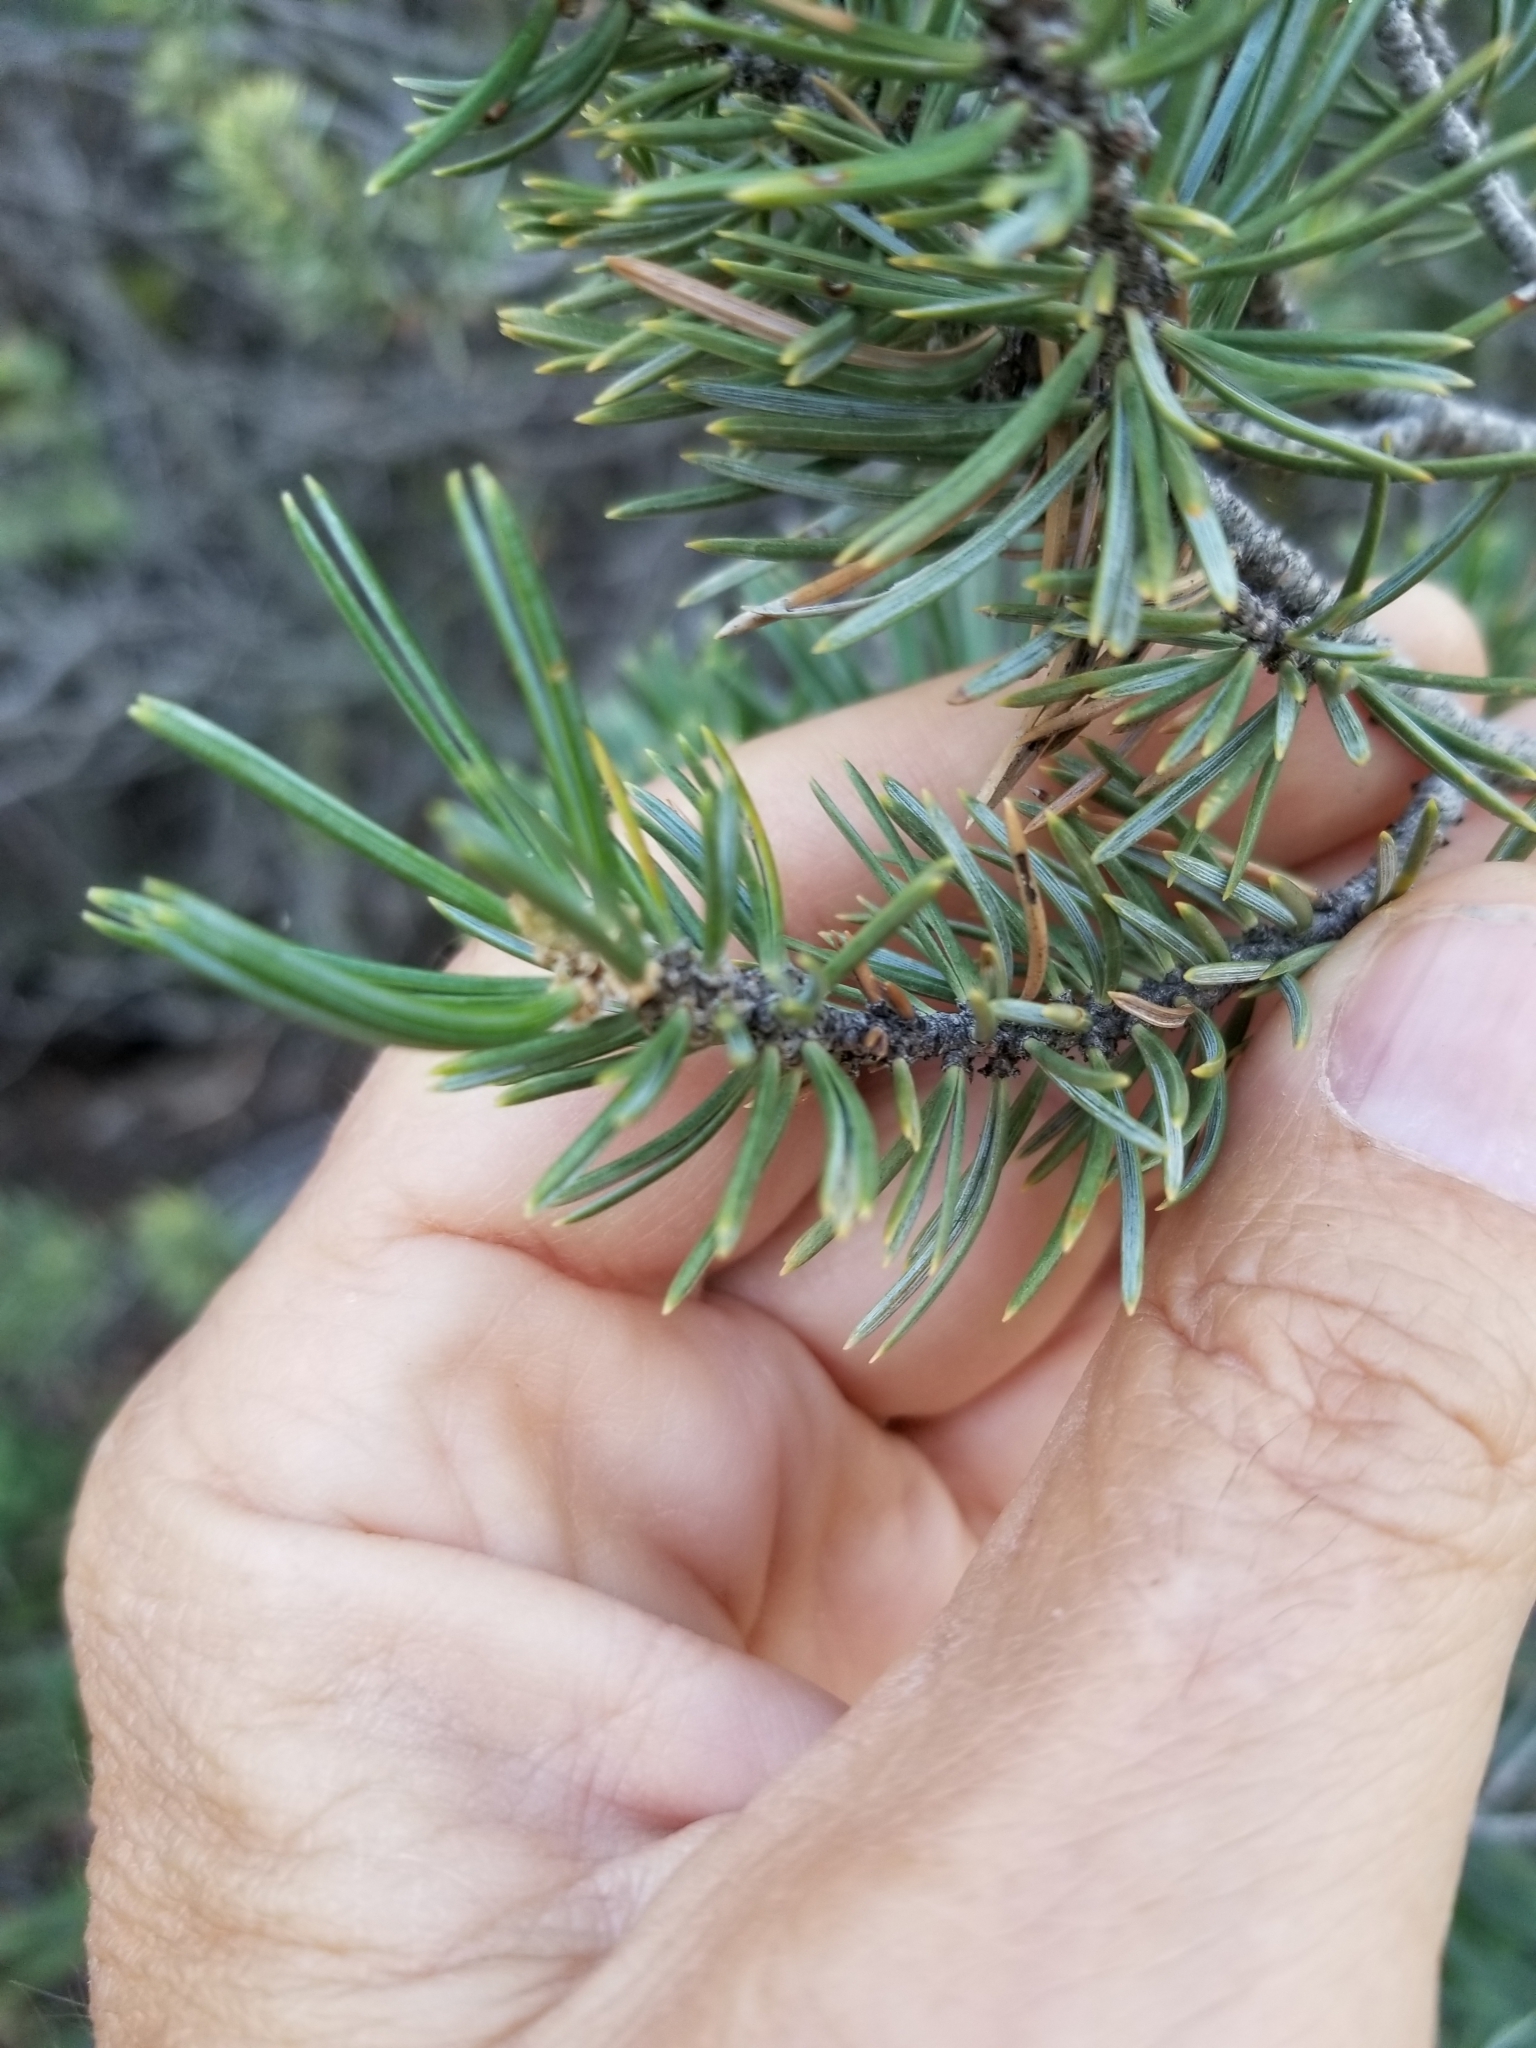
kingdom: Plantae
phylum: Tracheophyta
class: Pinopsida
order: Pinales
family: Pinaceae
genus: Pinus
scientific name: Pinus quadrifolia
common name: Parry pinyon
